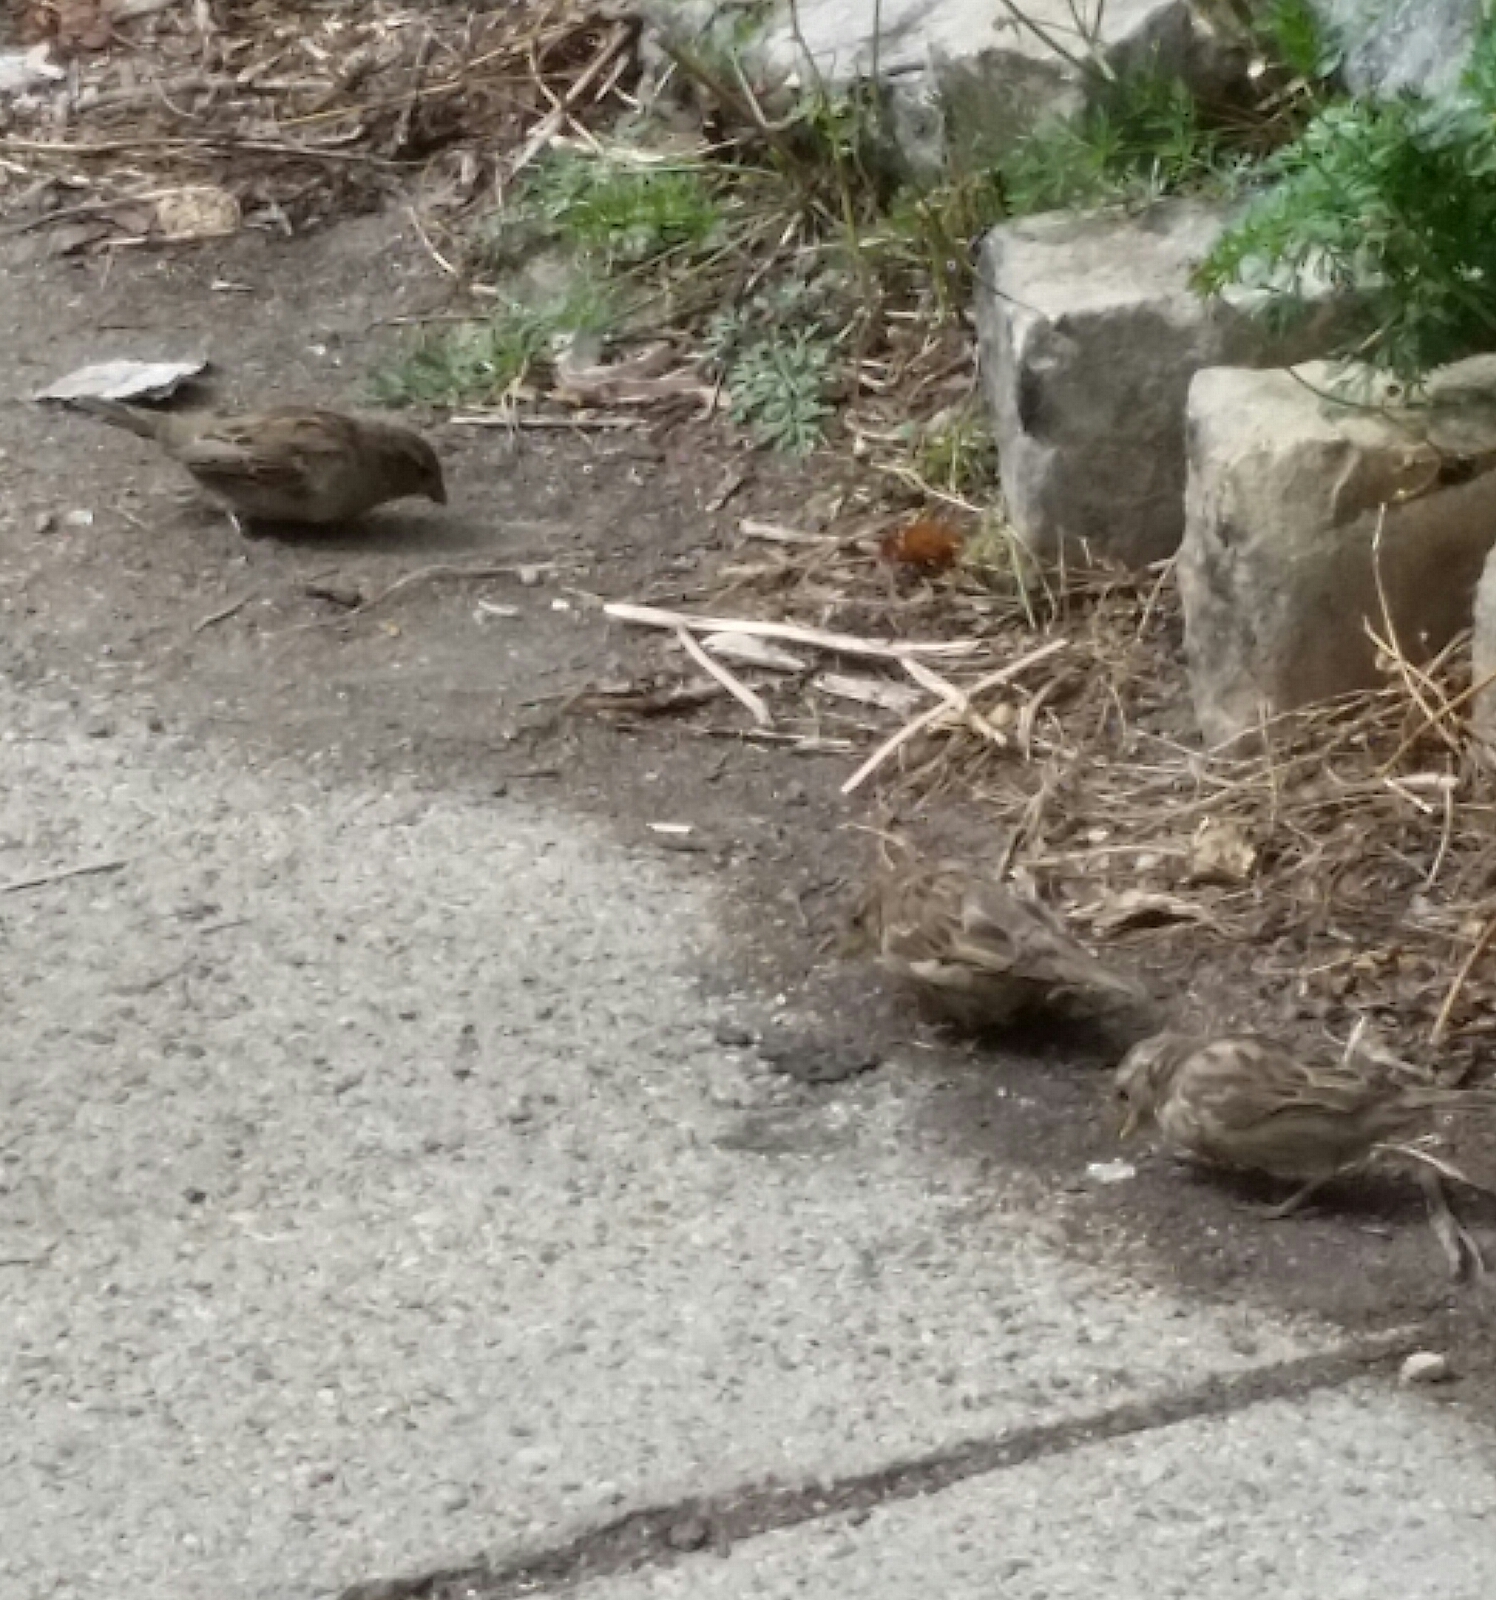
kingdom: Animalia
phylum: Chordata
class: Aves
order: Passeriformes
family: Passeridae
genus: Passer
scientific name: Passer domesticus
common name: House sparrow
